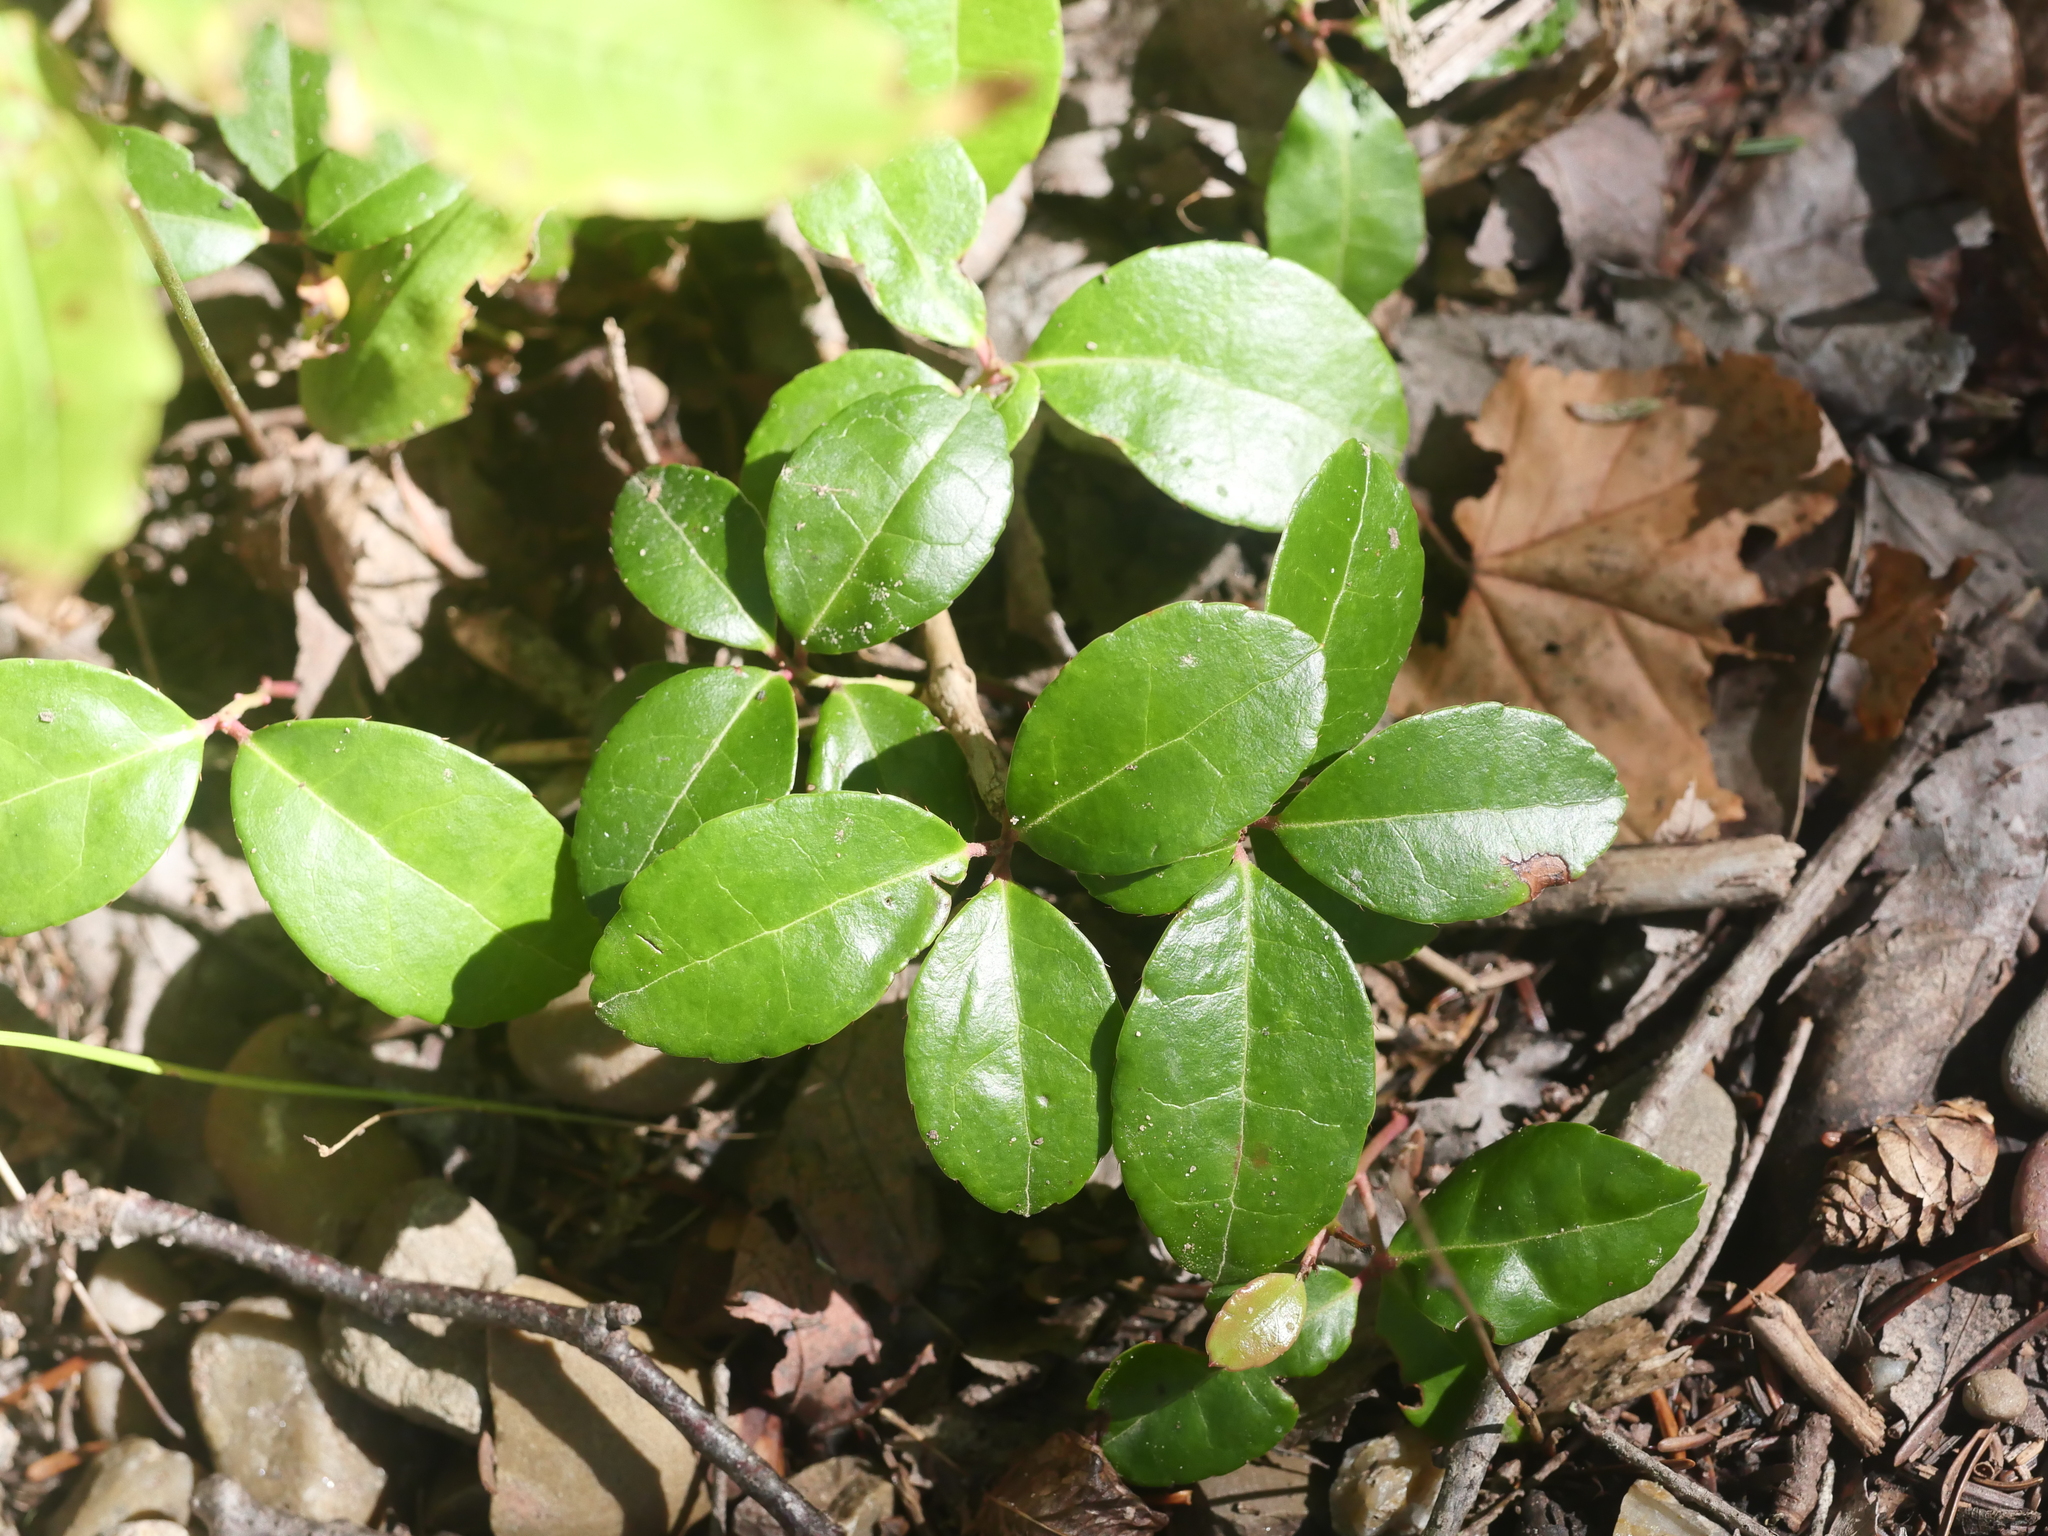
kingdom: Plantae
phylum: Tracheophyta
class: Magnoliopsida
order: Ericales
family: Ericaceae
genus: Gaultheria
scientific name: Gaultheria procumbens
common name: Checkerberry
